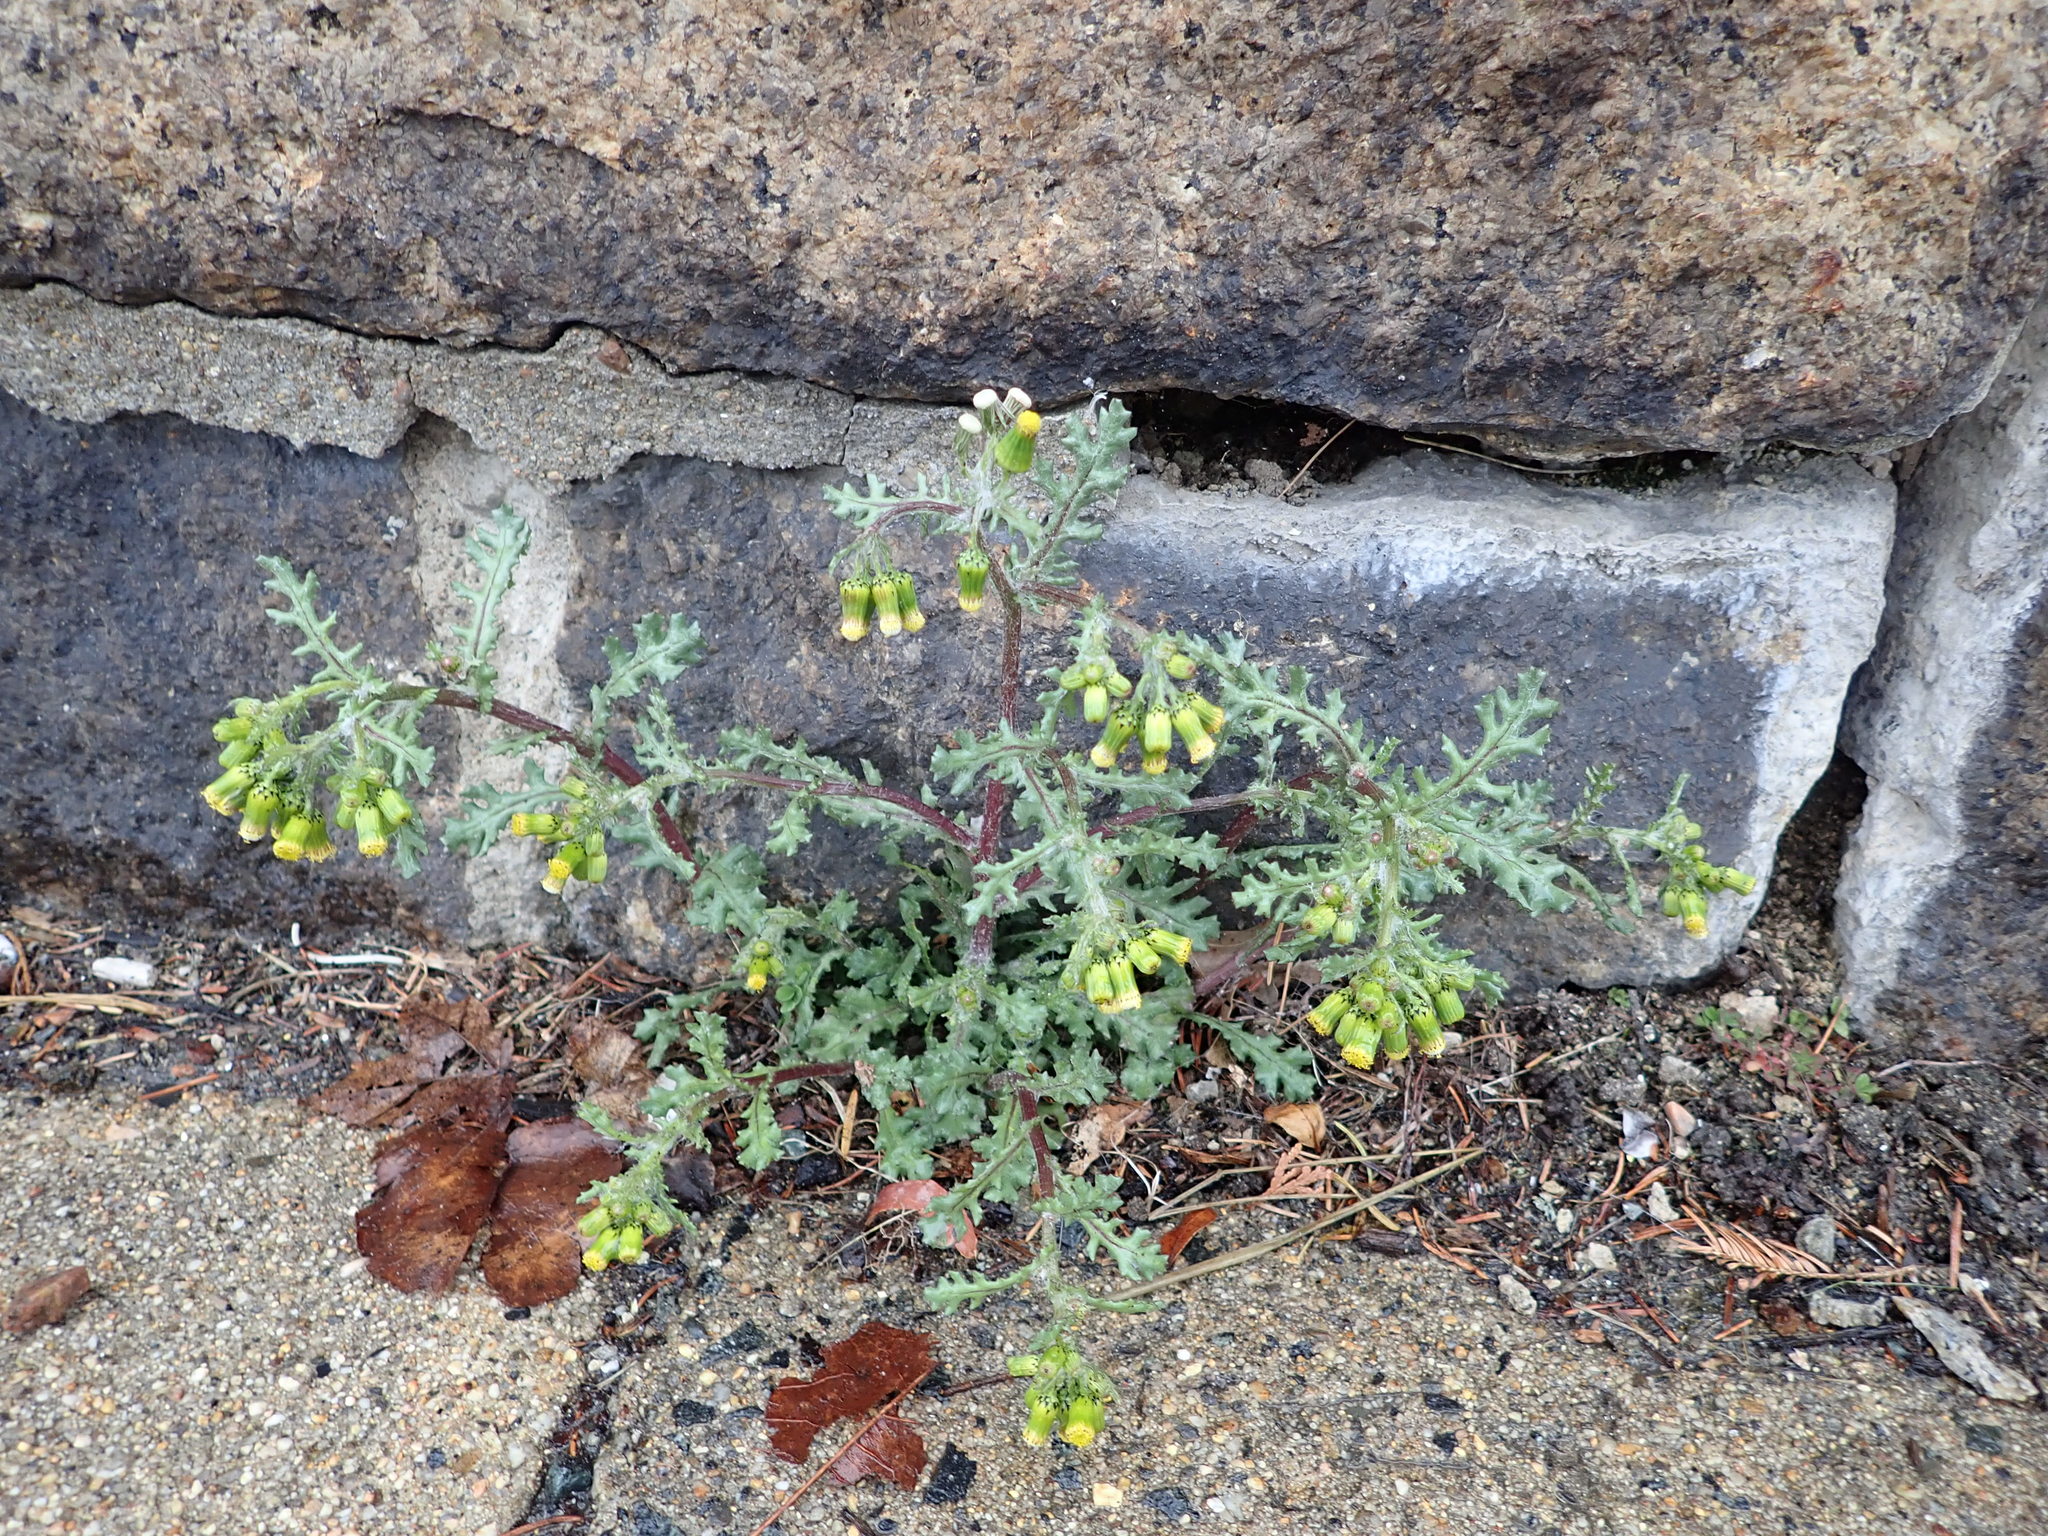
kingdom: Plantae
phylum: Tracheophyta
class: Magnoliopsida
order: Asterales
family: Asteraceae
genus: Senecio
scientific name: Senecio vulgaris
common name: Old-man-in-the-spring
